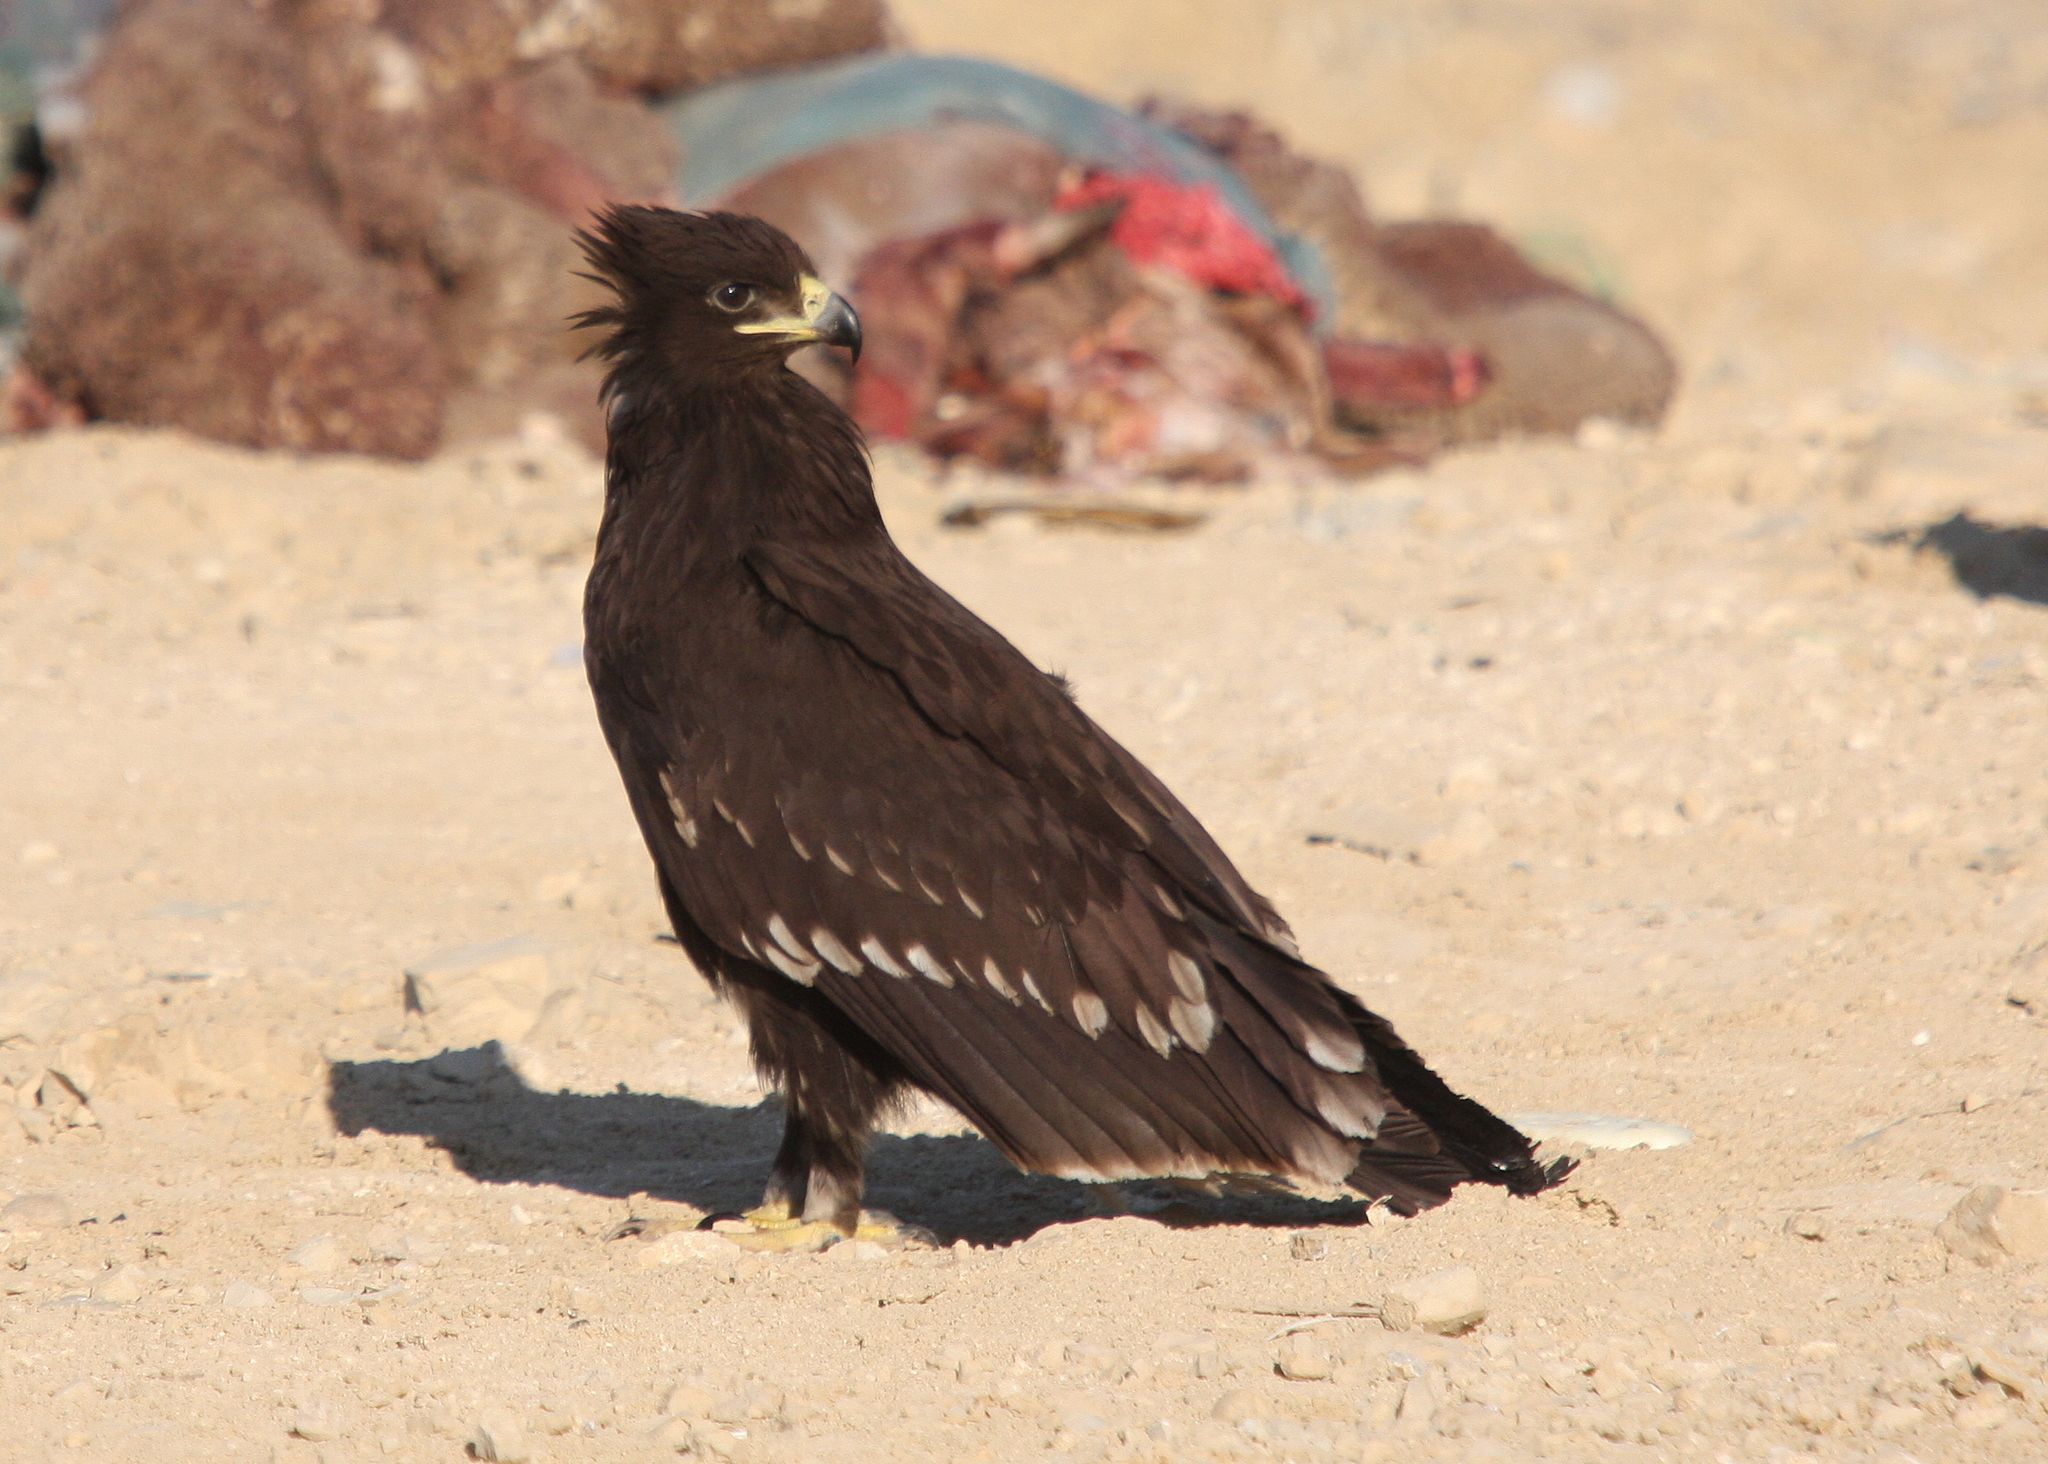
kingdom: Animalia
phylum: Chordata
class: Aves
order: Accipitriformes
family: Accipitridae
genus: Aquila
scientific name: Aquila clanga
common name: Greater spotted eagle
